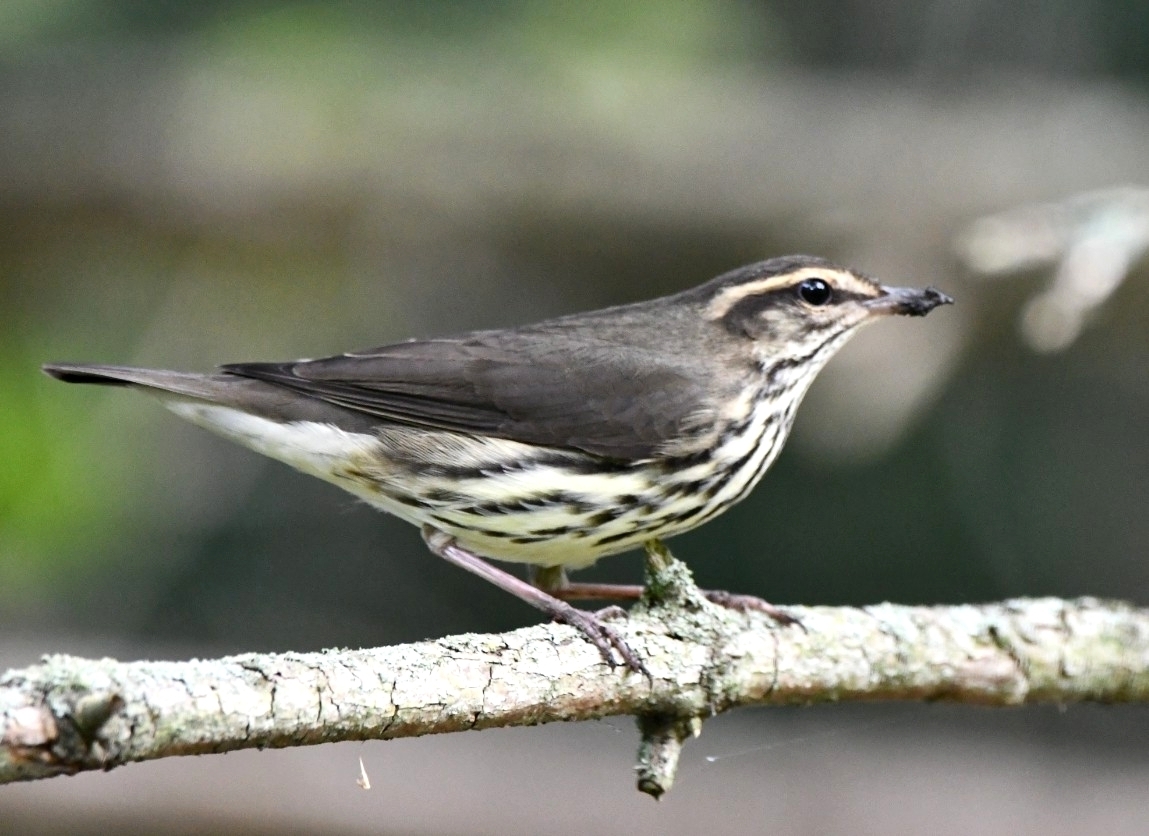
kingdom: Animalia
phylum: Chordata
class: Aves
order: Passeriformes
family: Parulidae
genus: Parkesia
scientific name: Parkesia noveboracensis
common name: Northern waterthrush
